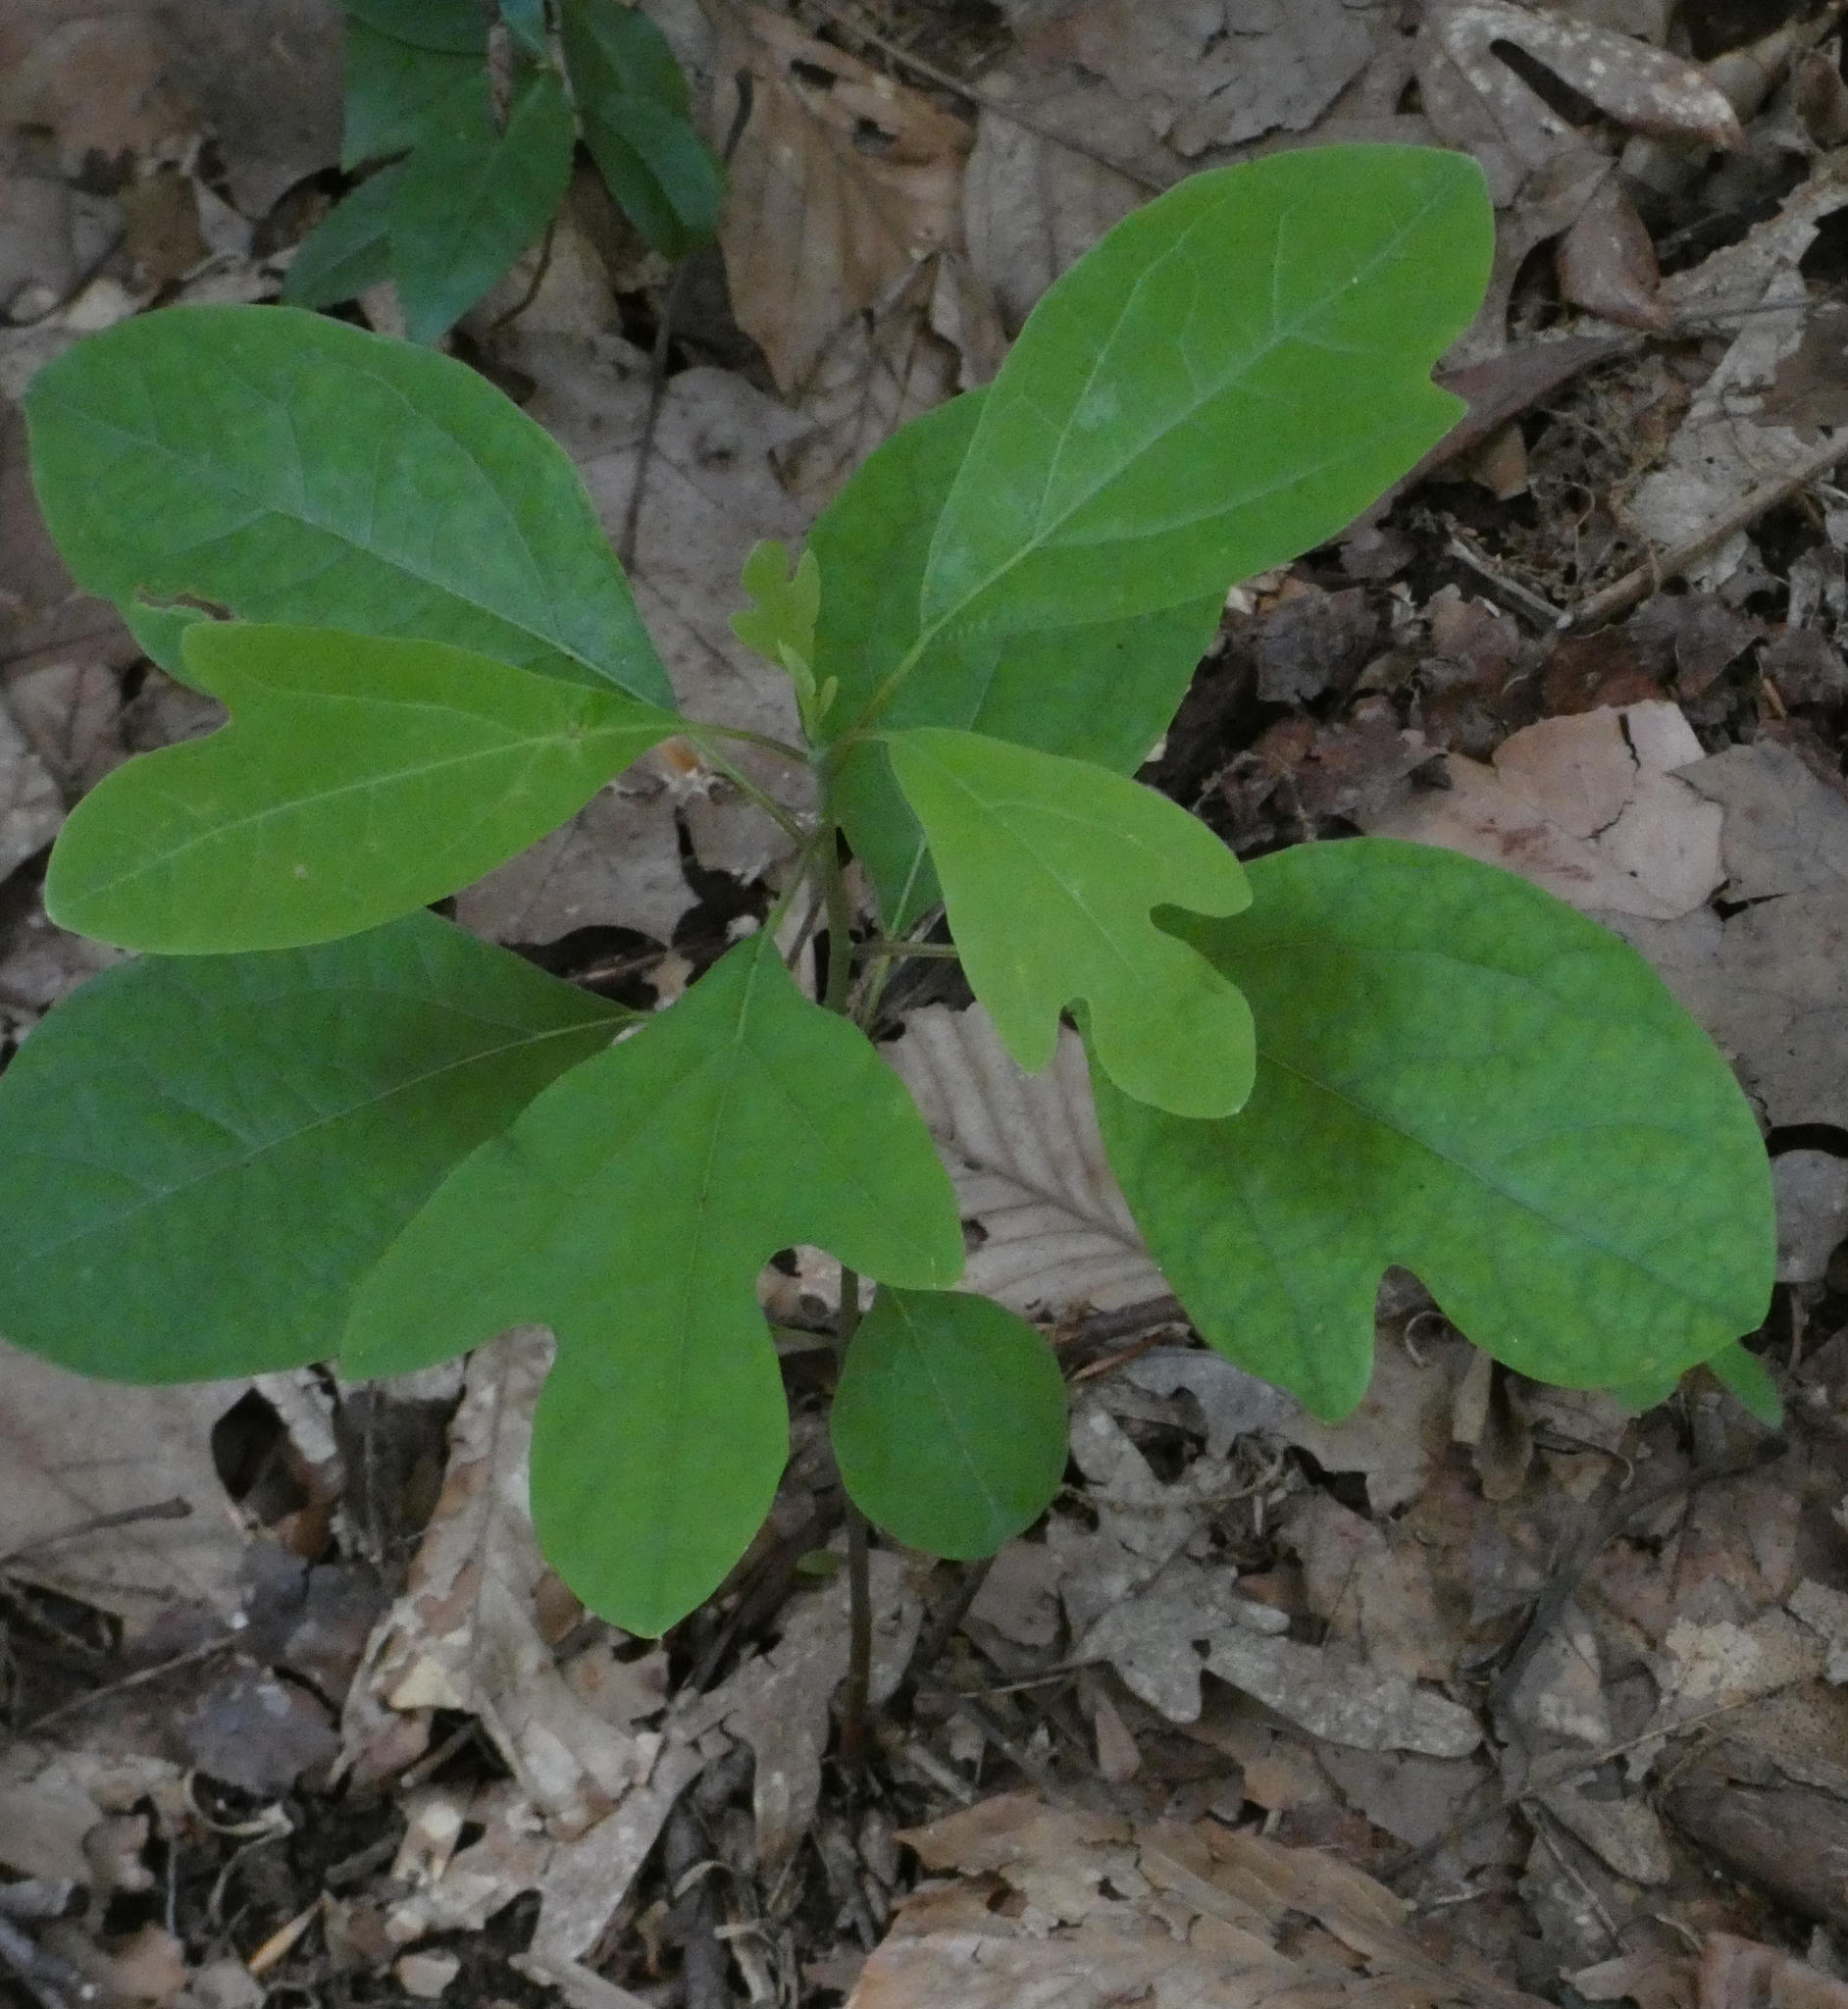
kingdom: Plantae
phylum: Tracheophyta
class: Magnoliopsida
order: Laurales
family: Lauraceae
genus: Sassafras
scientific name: Sassafras albidum
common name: Sassafras
